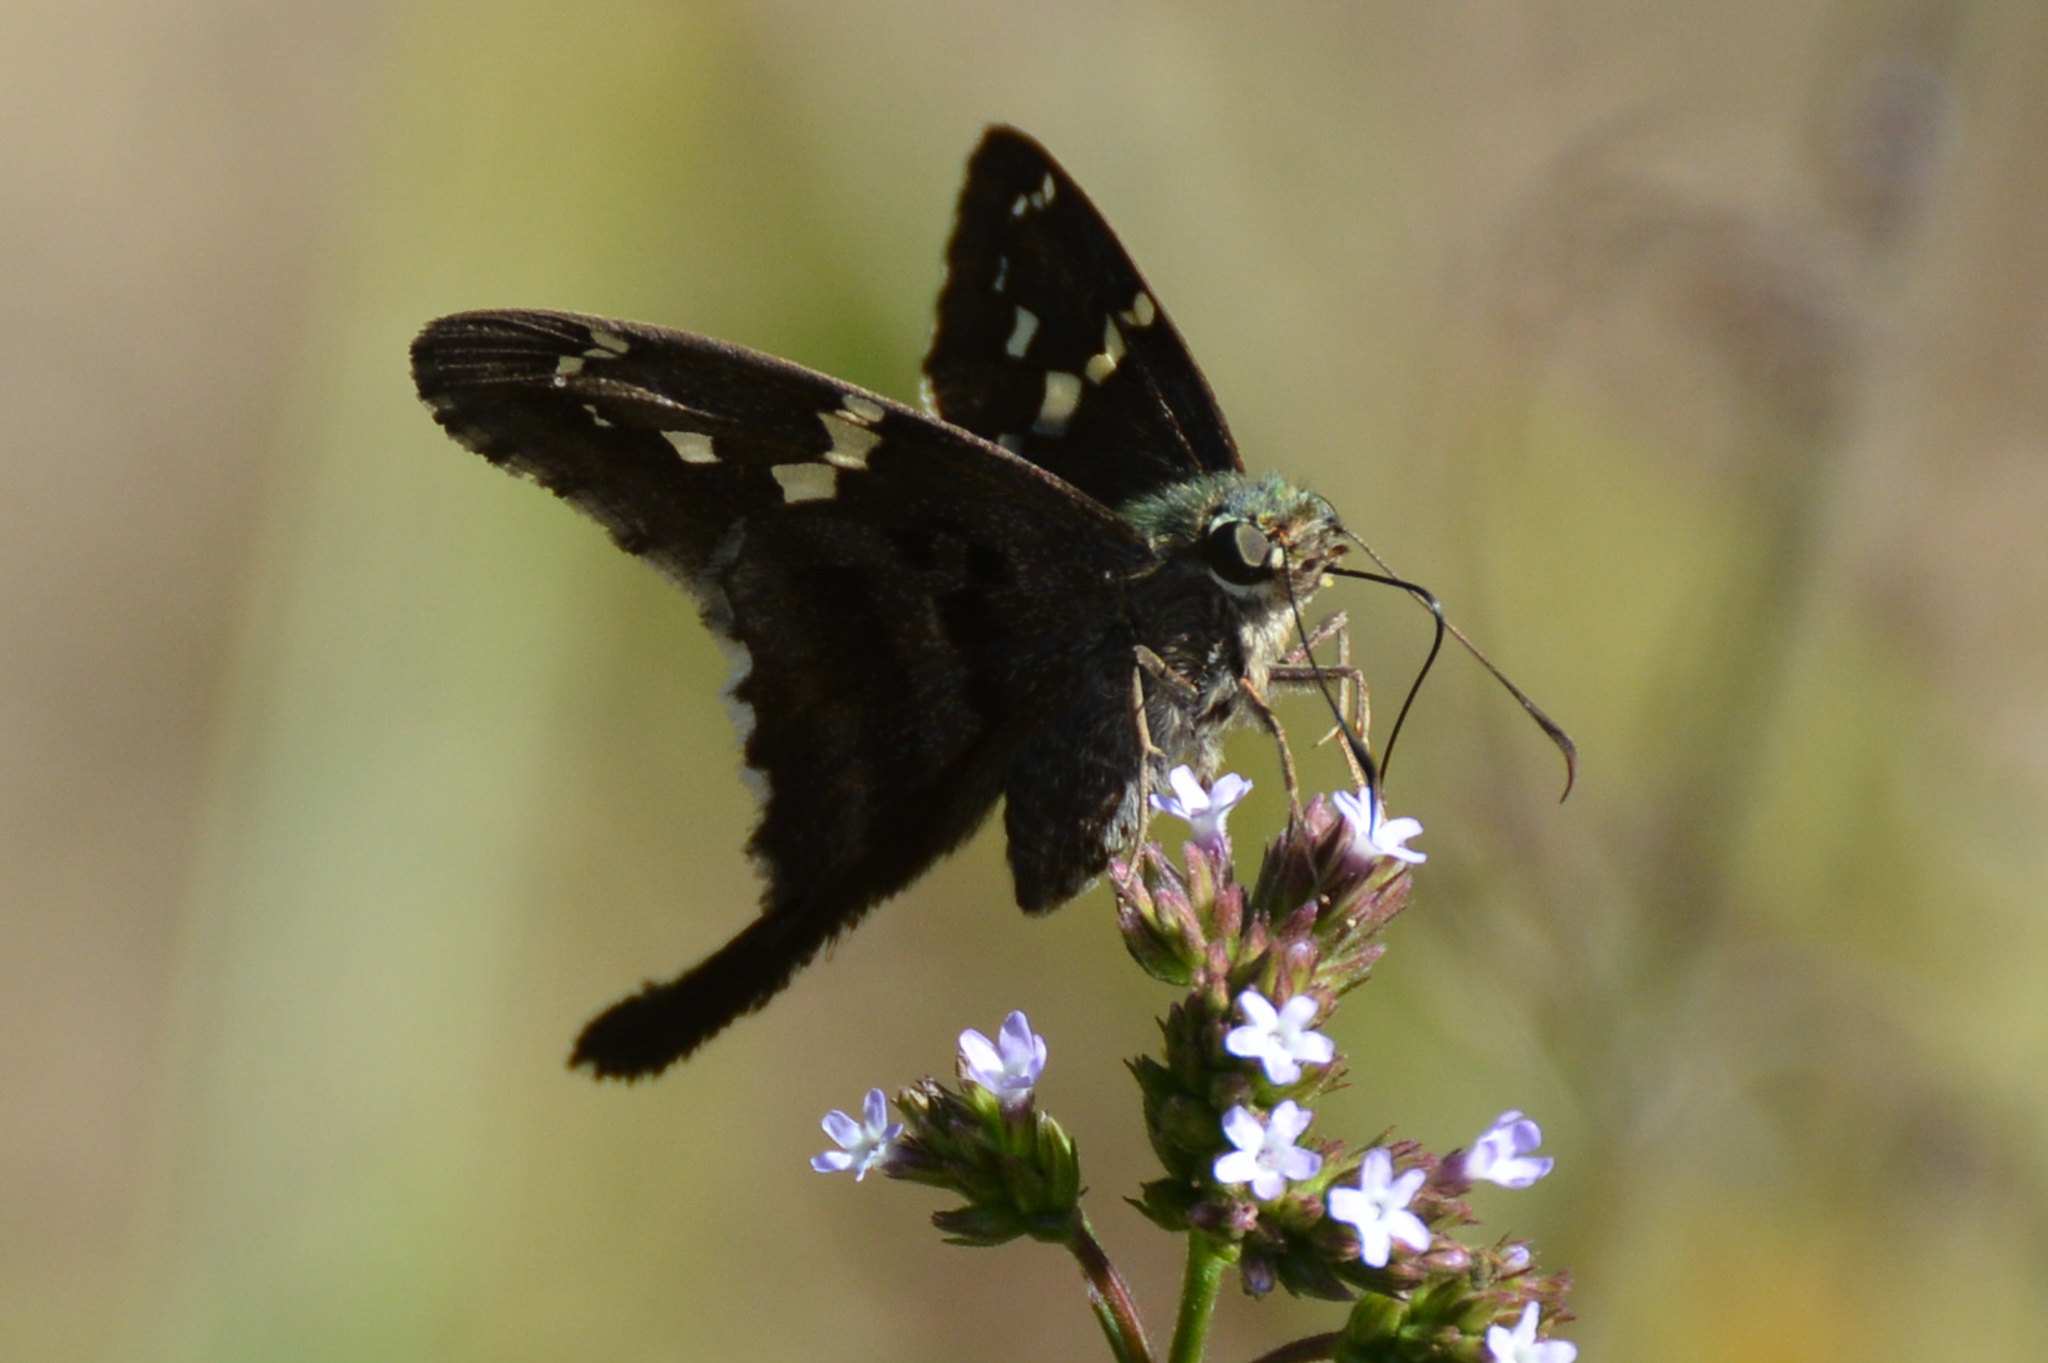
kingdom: Animalia
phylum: Arthropoda
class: Insecta
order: Lepidoptera
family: Hesperiidae
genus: Urbanus
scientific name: Urbanus proteus
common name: Long-tailed skipper
